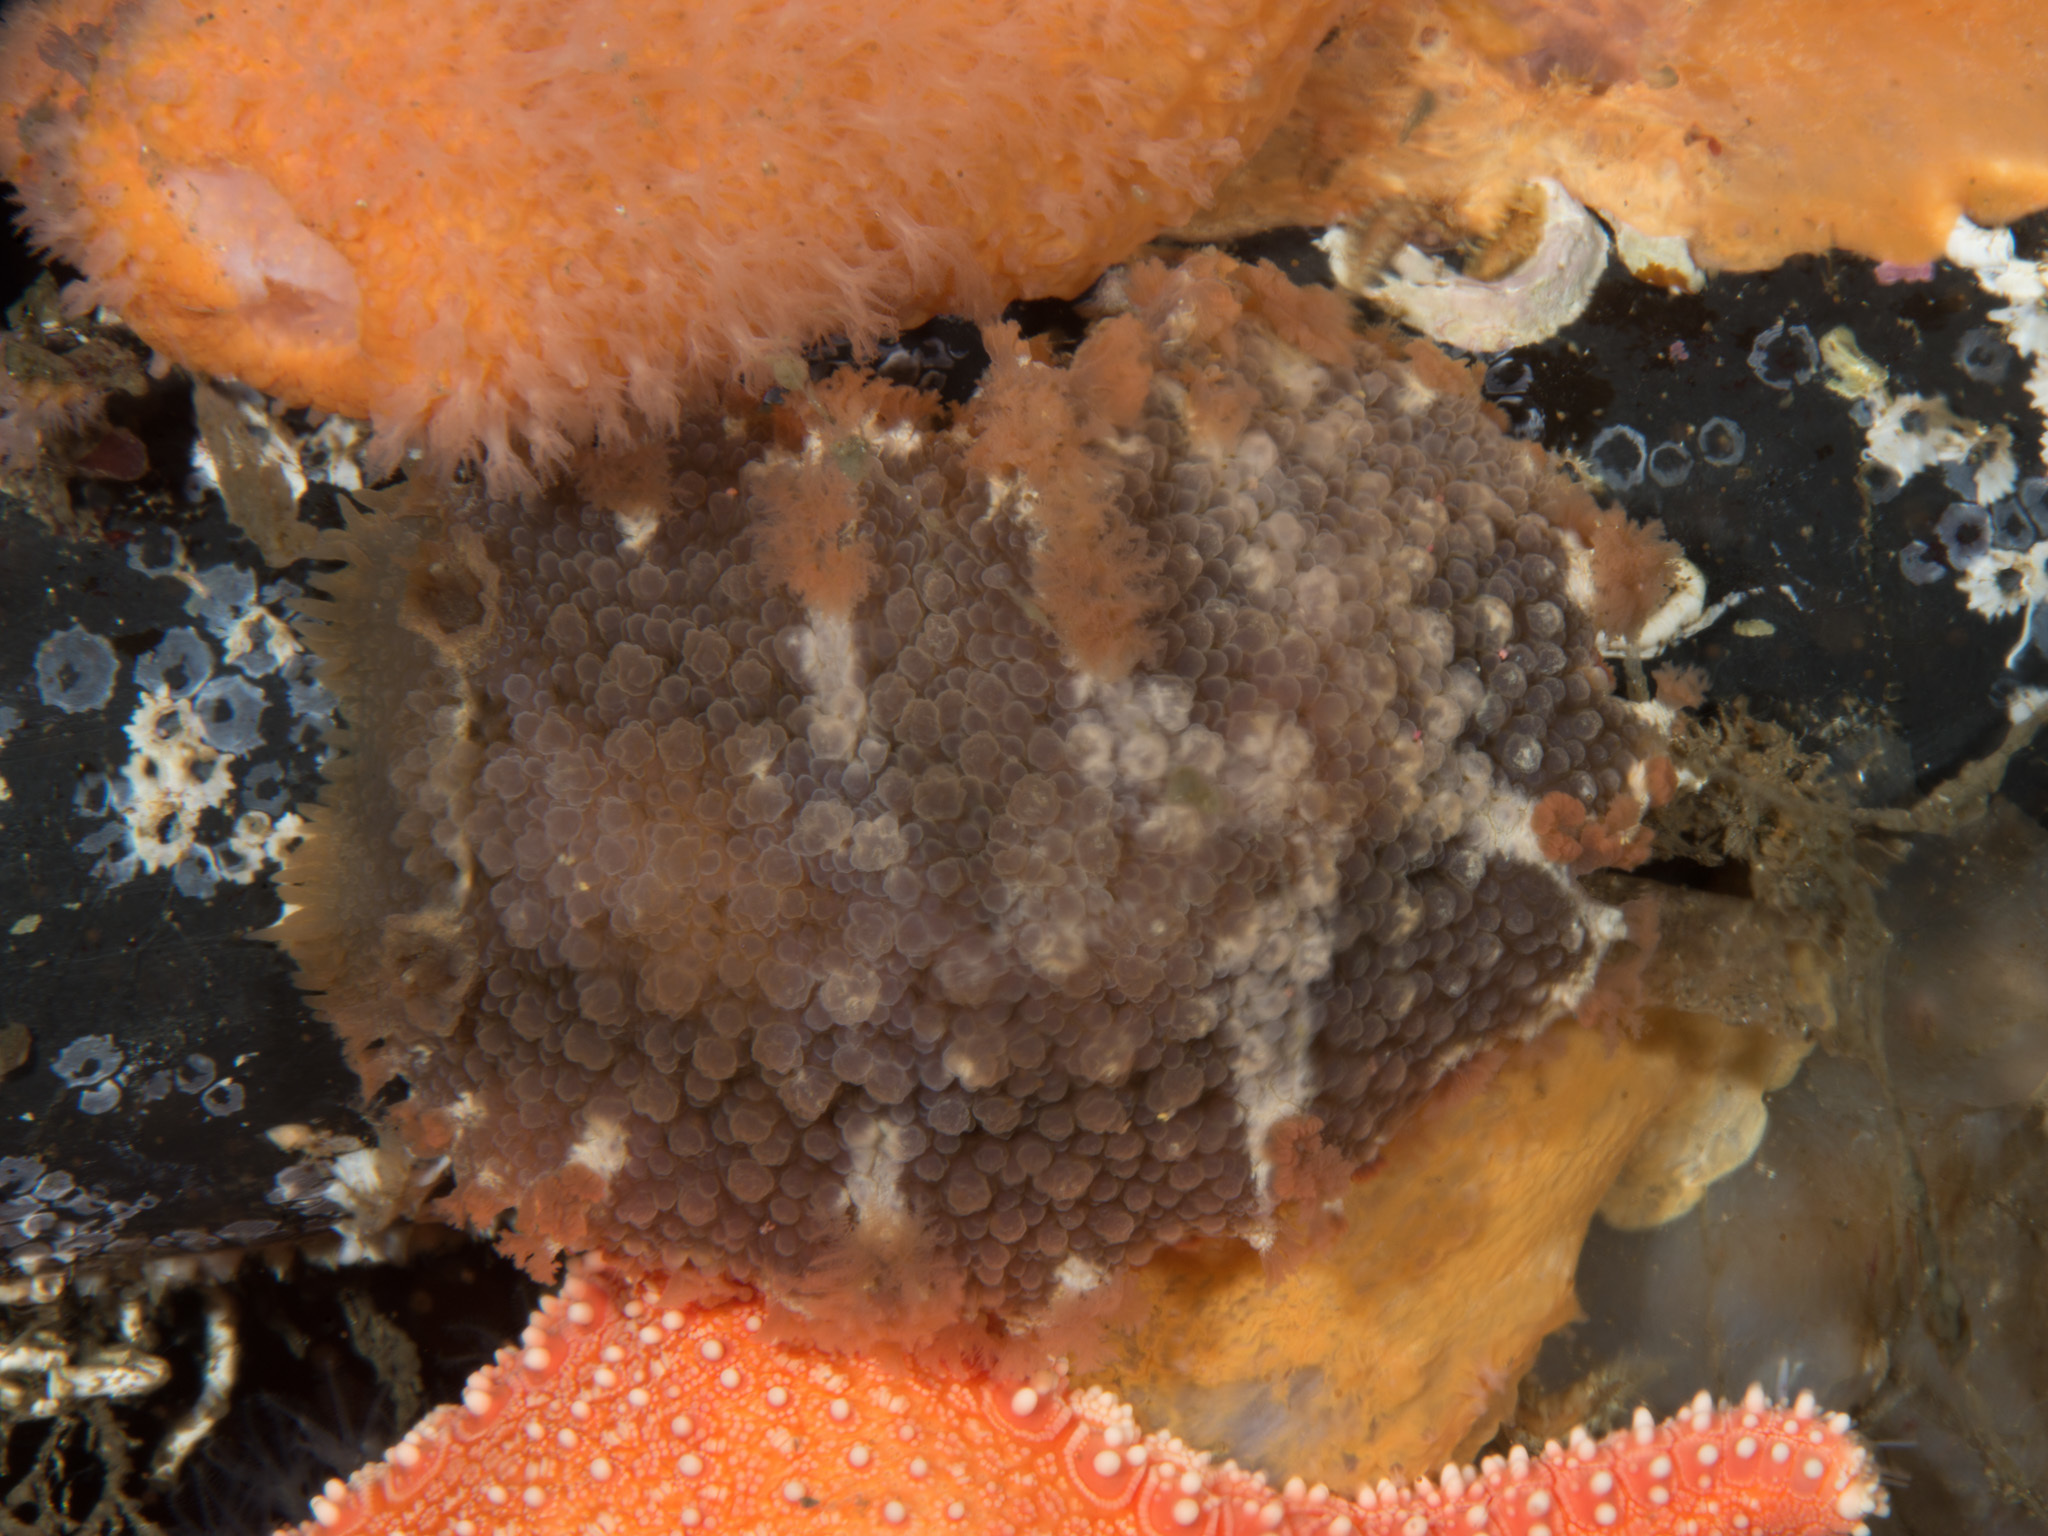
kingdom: Animalia
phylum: Mollusca
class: Gastropoda
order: Nudibranchia
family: Tritoniidae
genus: Tritonia
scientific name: Tritonia hombergii
